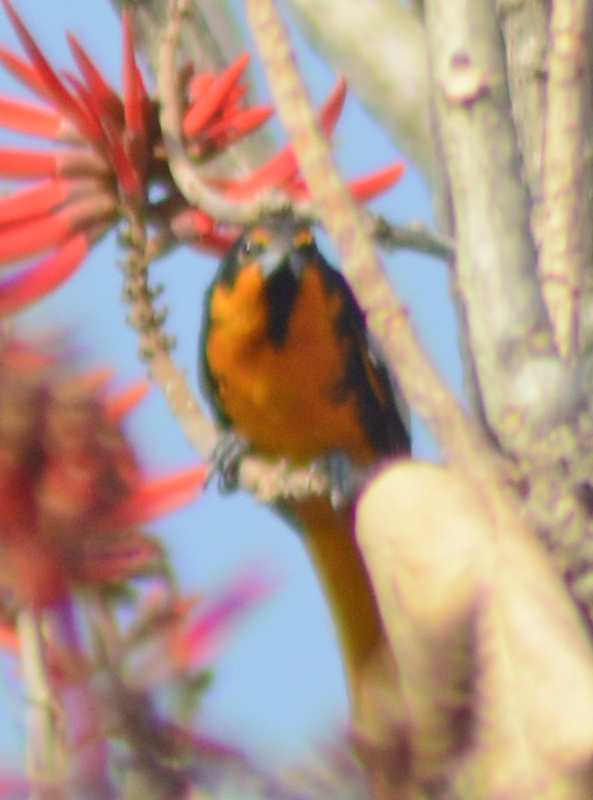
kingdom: Animalia
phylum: Chordata
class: Aves
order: Passeriformes
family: Icteridae
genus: Icterus
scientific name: Icterus abeillei
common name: Black-backed oriole
